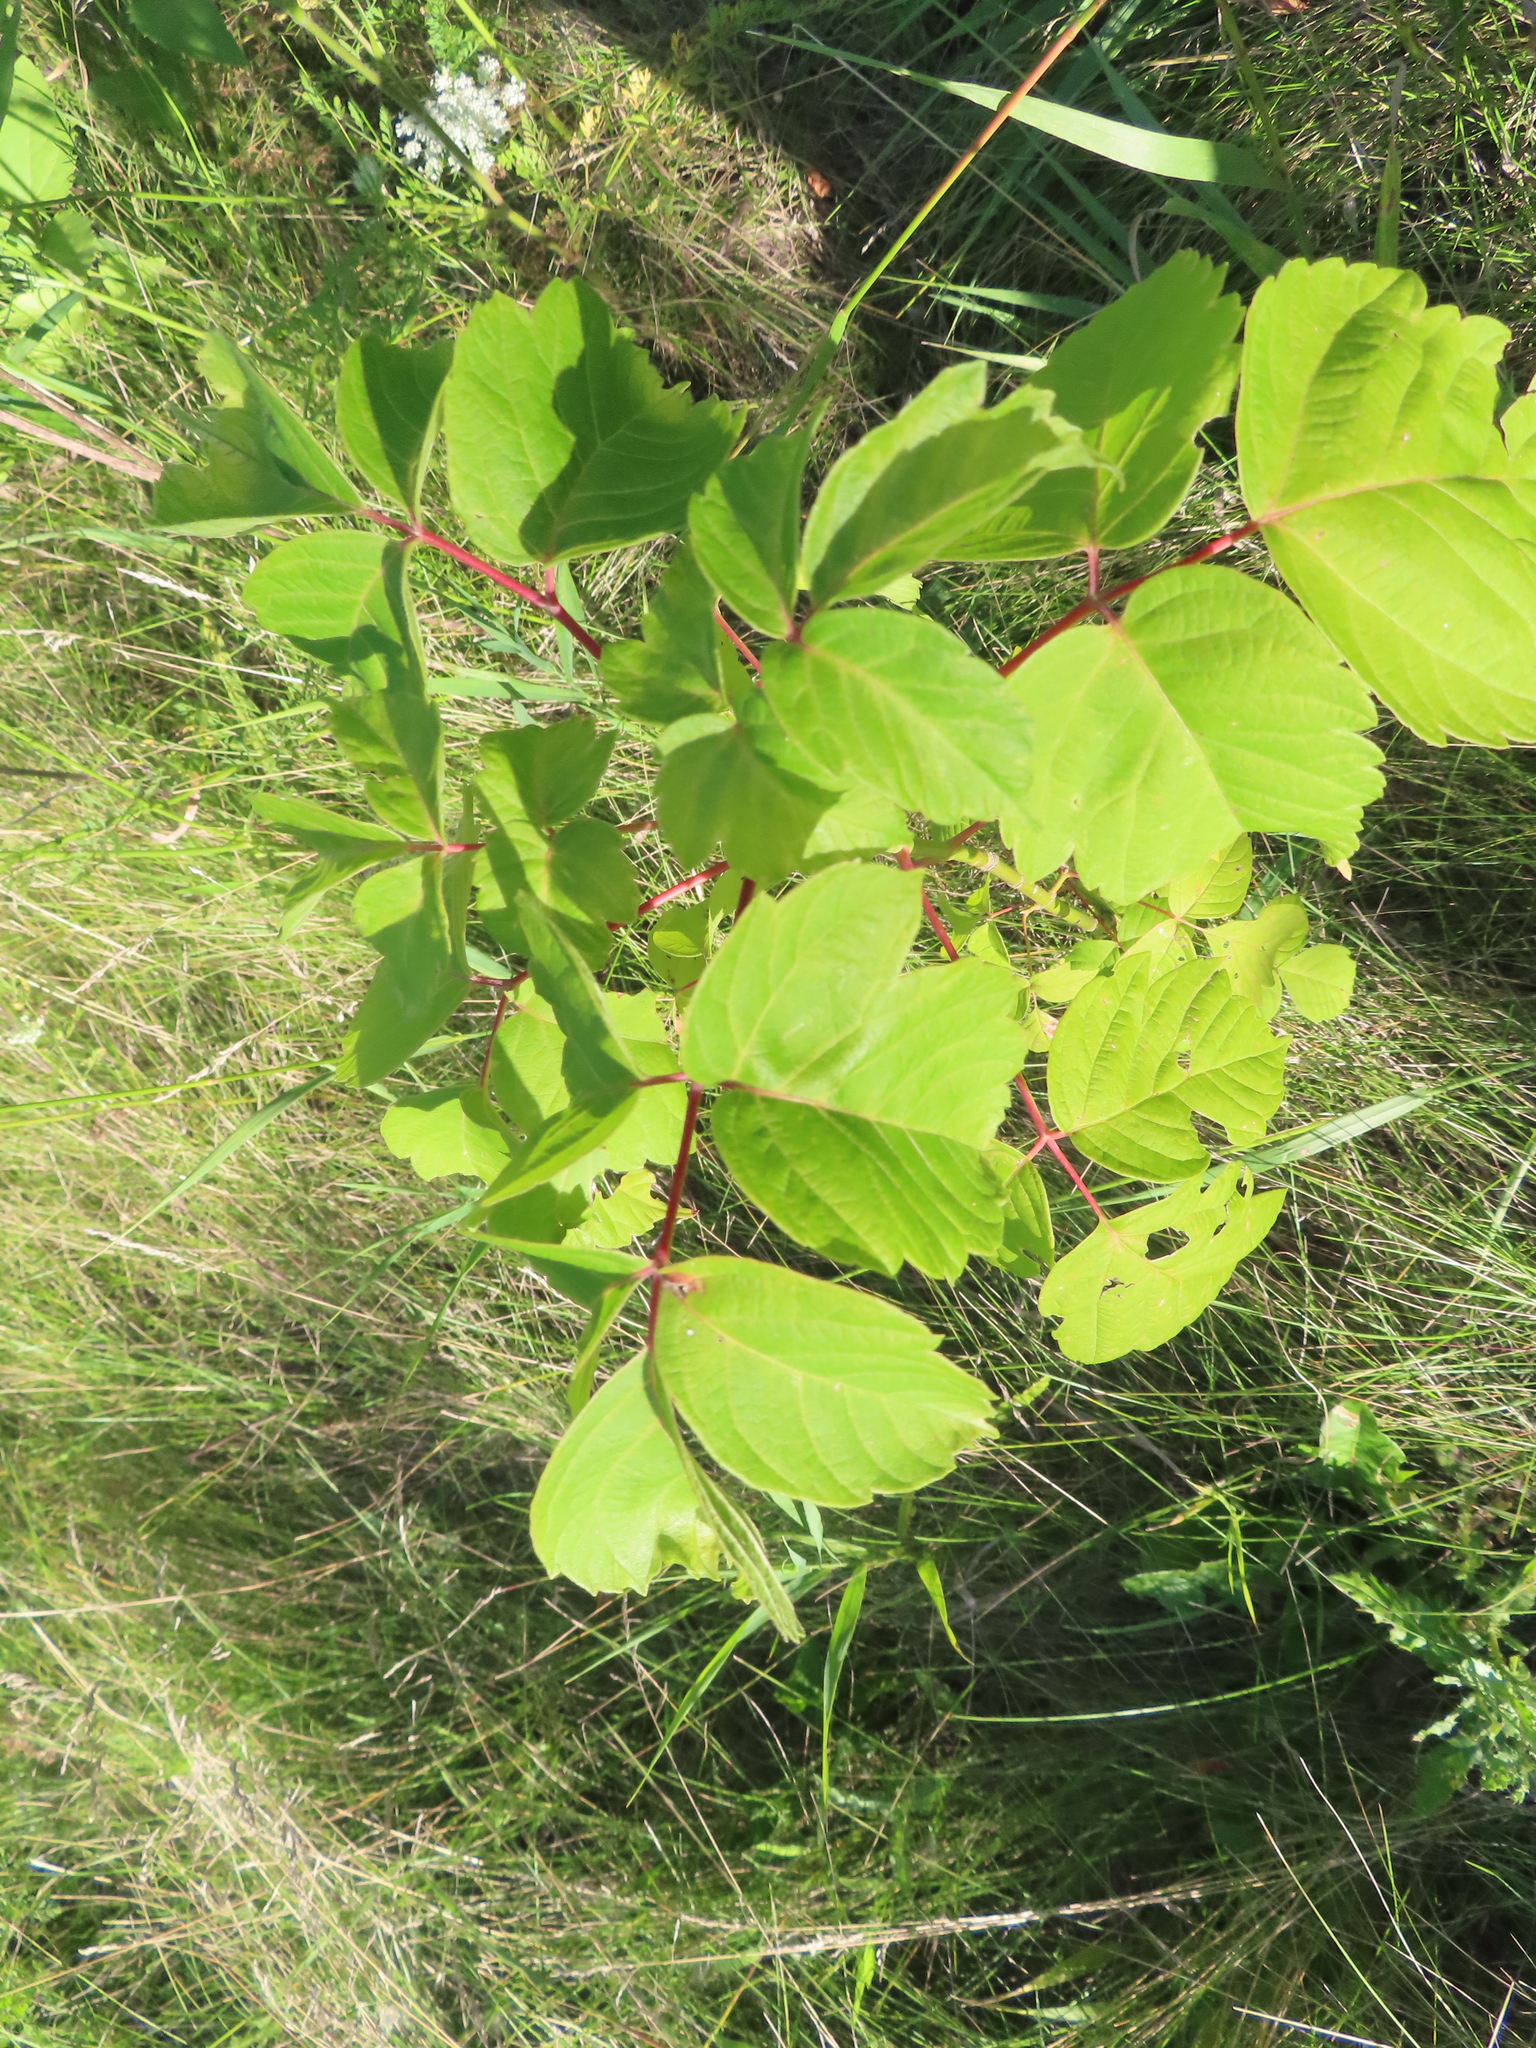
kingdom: Plantae
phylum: Tracheophyta
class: Magnoliopsida
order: Sapindales
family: Sapindaceae
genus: Acer
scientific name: Acer negundo
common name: Ashleaf maple
